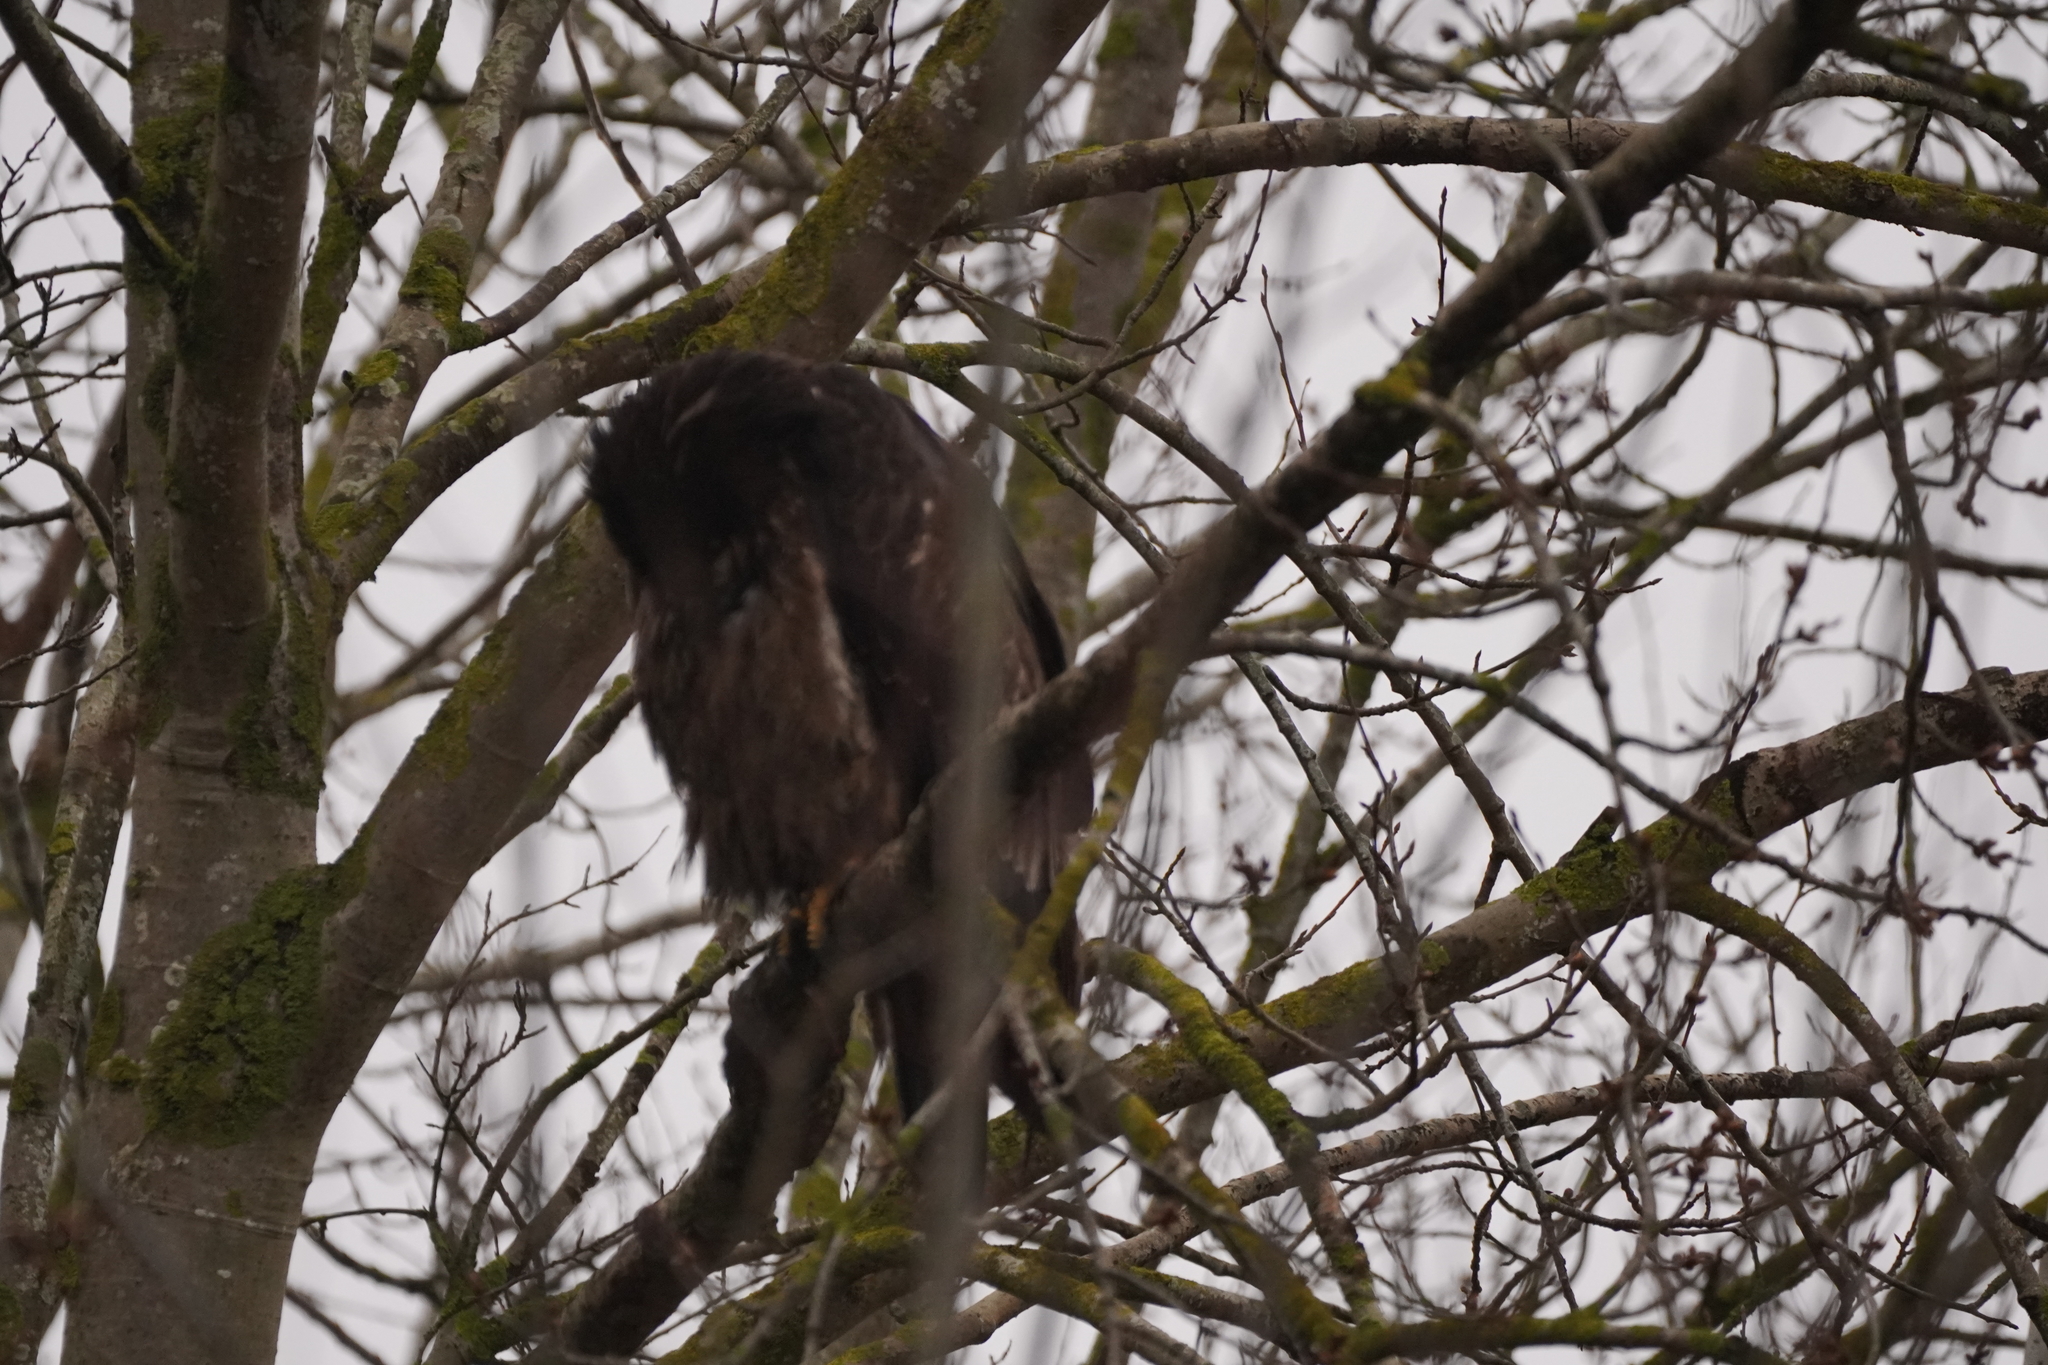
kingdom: Animalia
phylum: Chordata
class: Aves
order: Accipitriformes
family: Accipitridae
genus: Haliaeetus
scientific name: Haliaeetus leucocephalus
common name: Bald eagle
